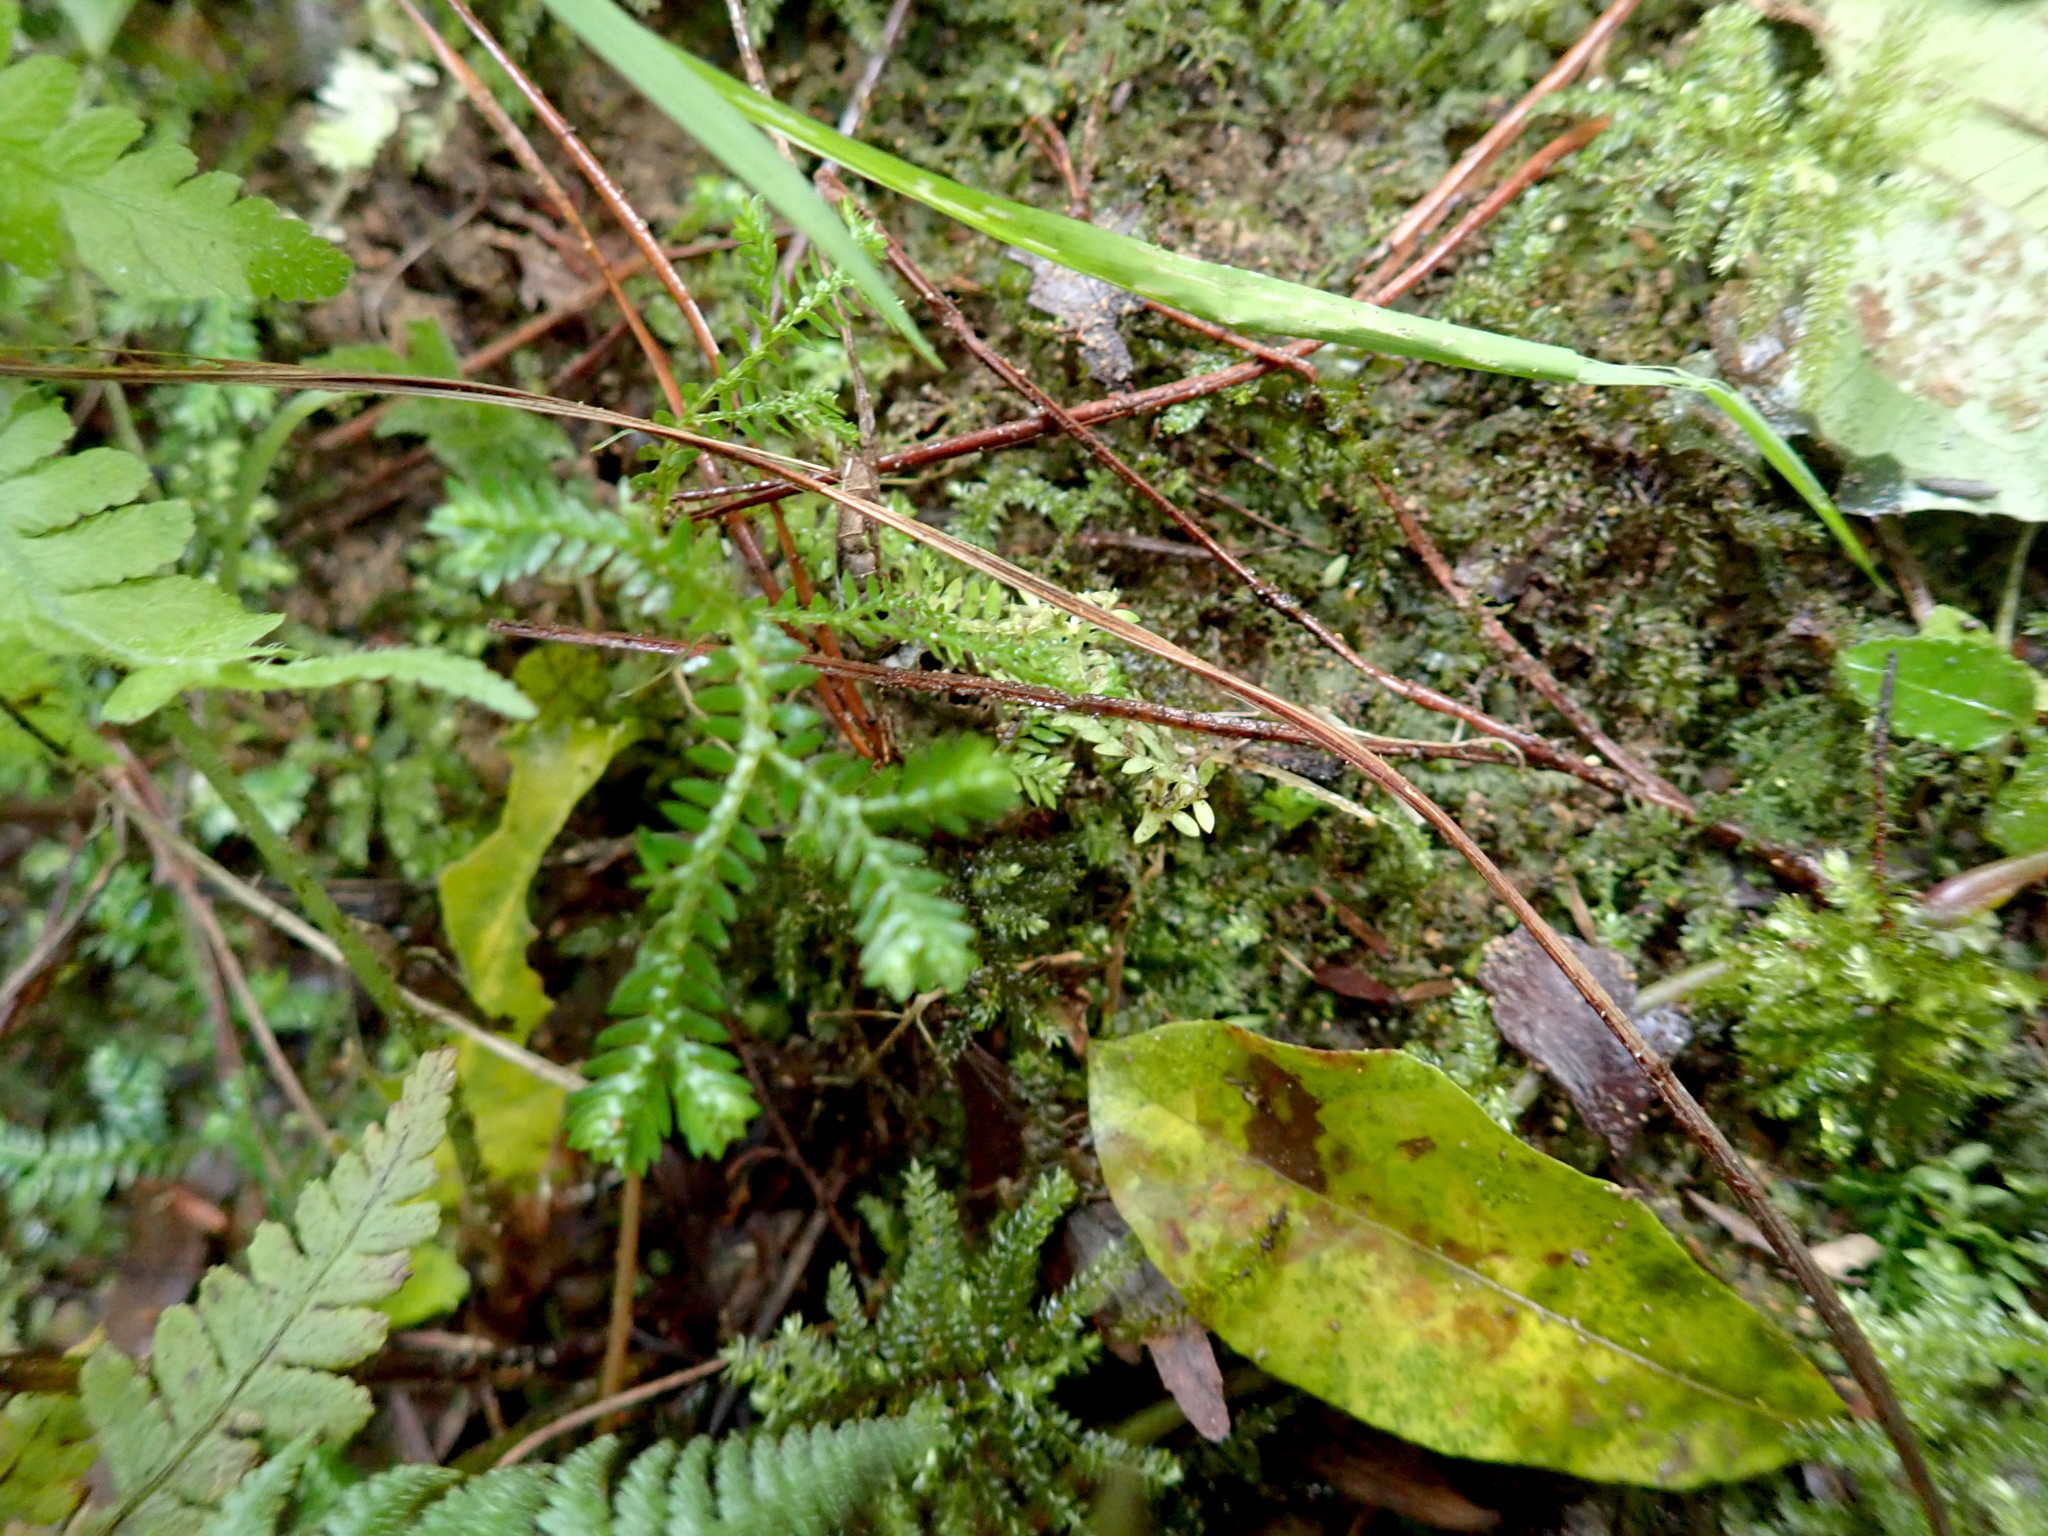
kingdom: Plantae
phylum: Tracheophyta
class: Lycopodiopsida
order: Selaginellales
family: Selaginellaceae
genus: Selaginella
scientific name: Selaginella kraussiana
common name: Krauss' spikemoss
